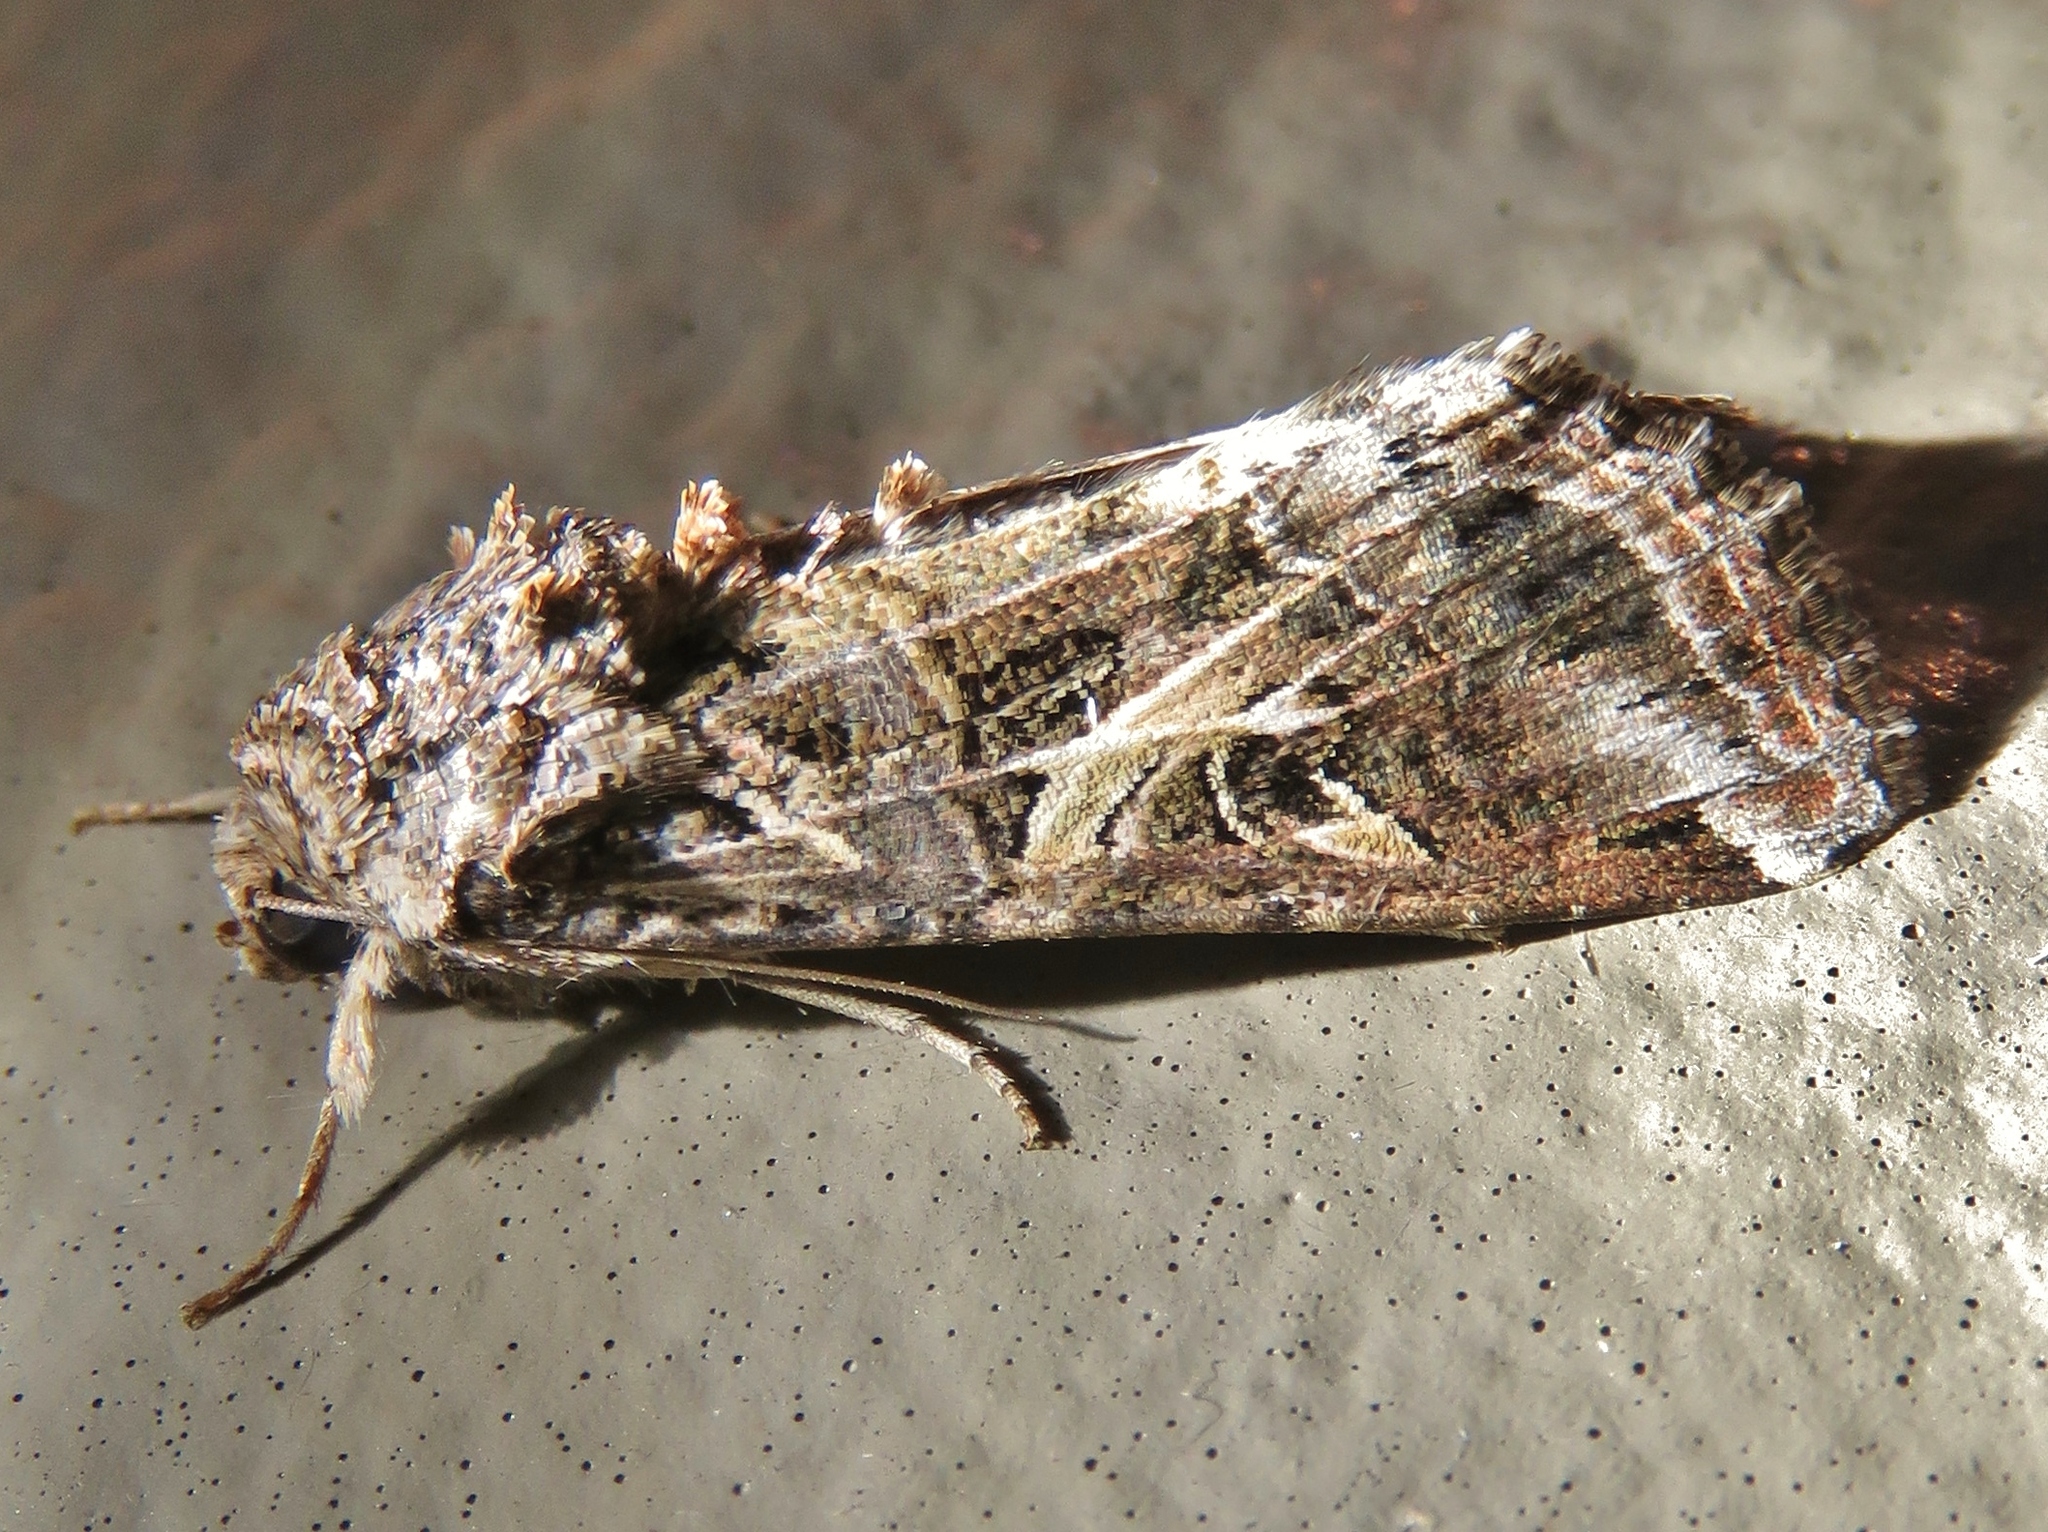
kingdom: Animalia
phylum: Arthropoda
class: Insecta
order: Lepidoptera
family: Noctuidae
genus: Spodoptera
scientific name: Spodoptera ornithogalli
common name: Yellow-striped armyworm
